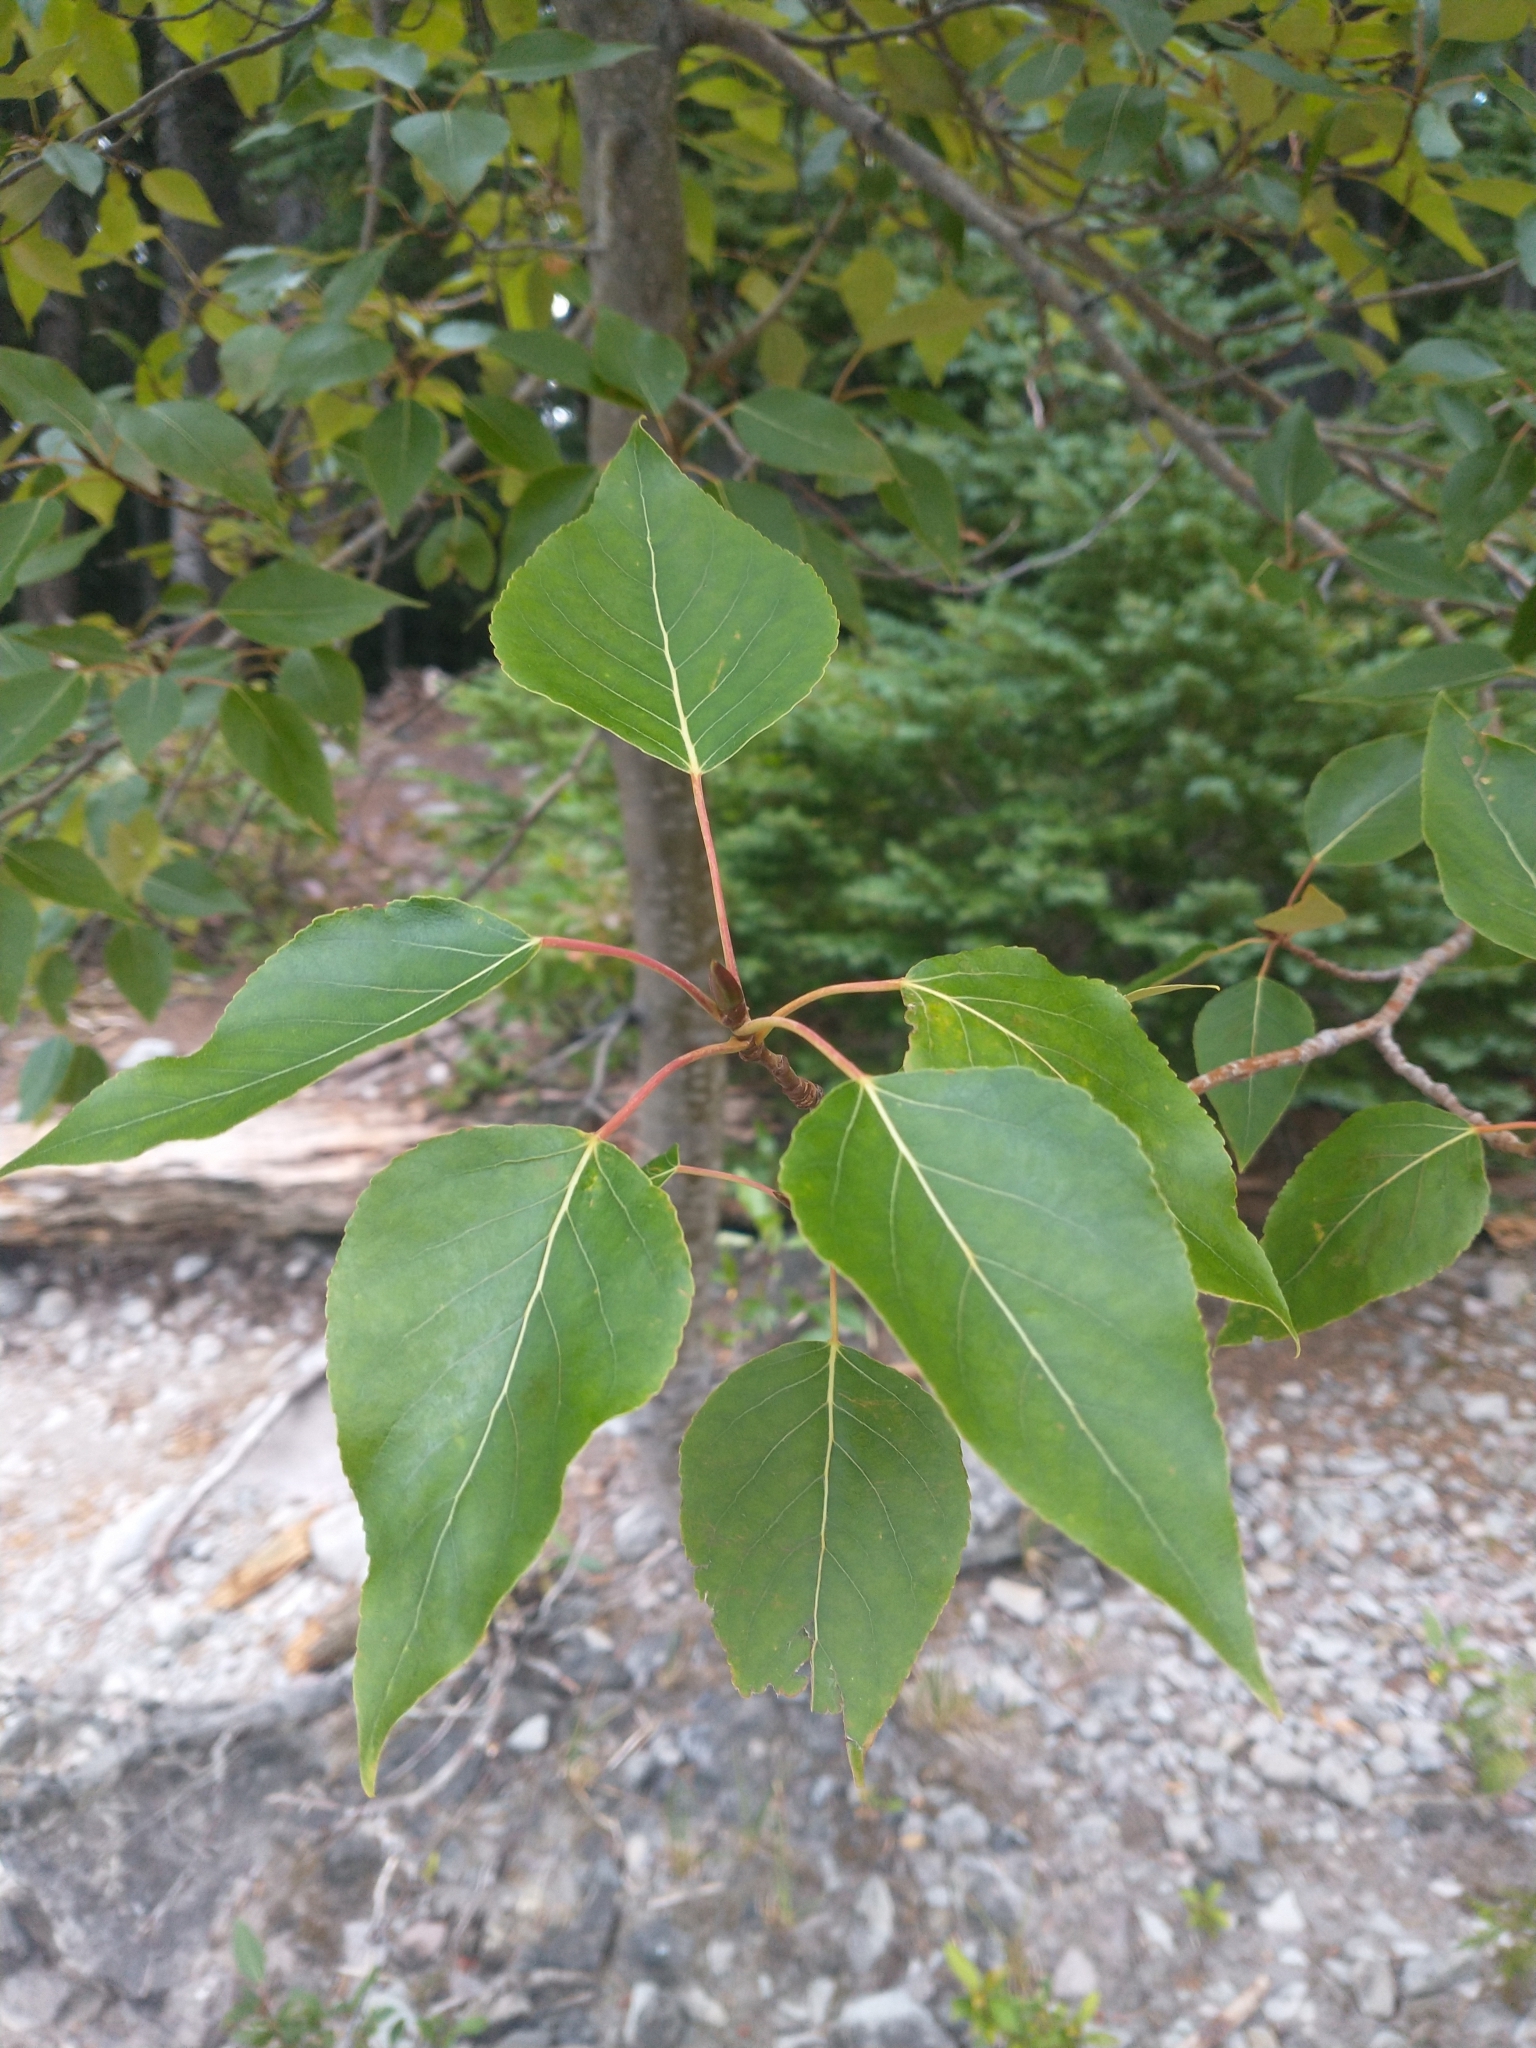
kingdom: Plantae
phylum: Tracheophyta
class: Magnoliopsida
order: Malpighiales
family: Salicaceae
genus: Populus
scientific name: Populus trichocarpa
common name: Black cottonwood
